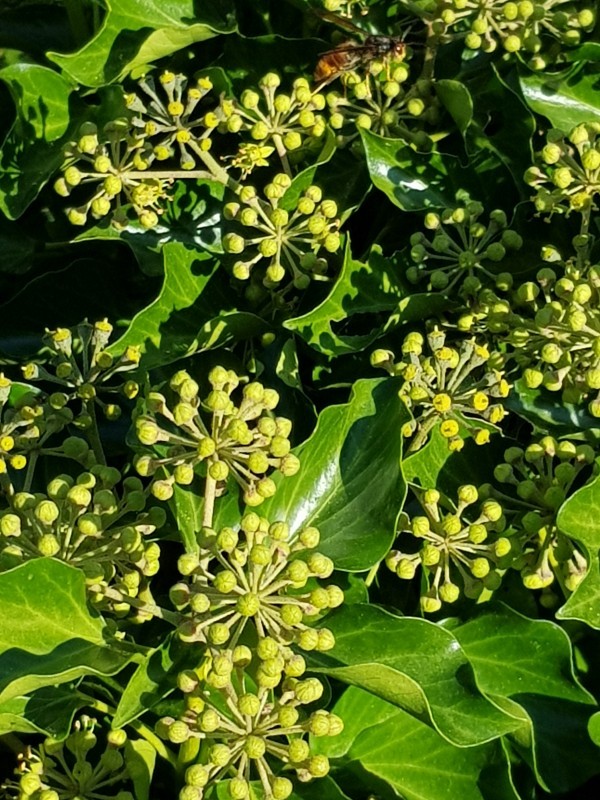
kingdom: Animalia
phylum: Arthropoda
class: Insecta
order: Hymenoptera
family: Vespidae
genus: Vespa
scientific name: Vespa velutina
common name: Asian hornet
